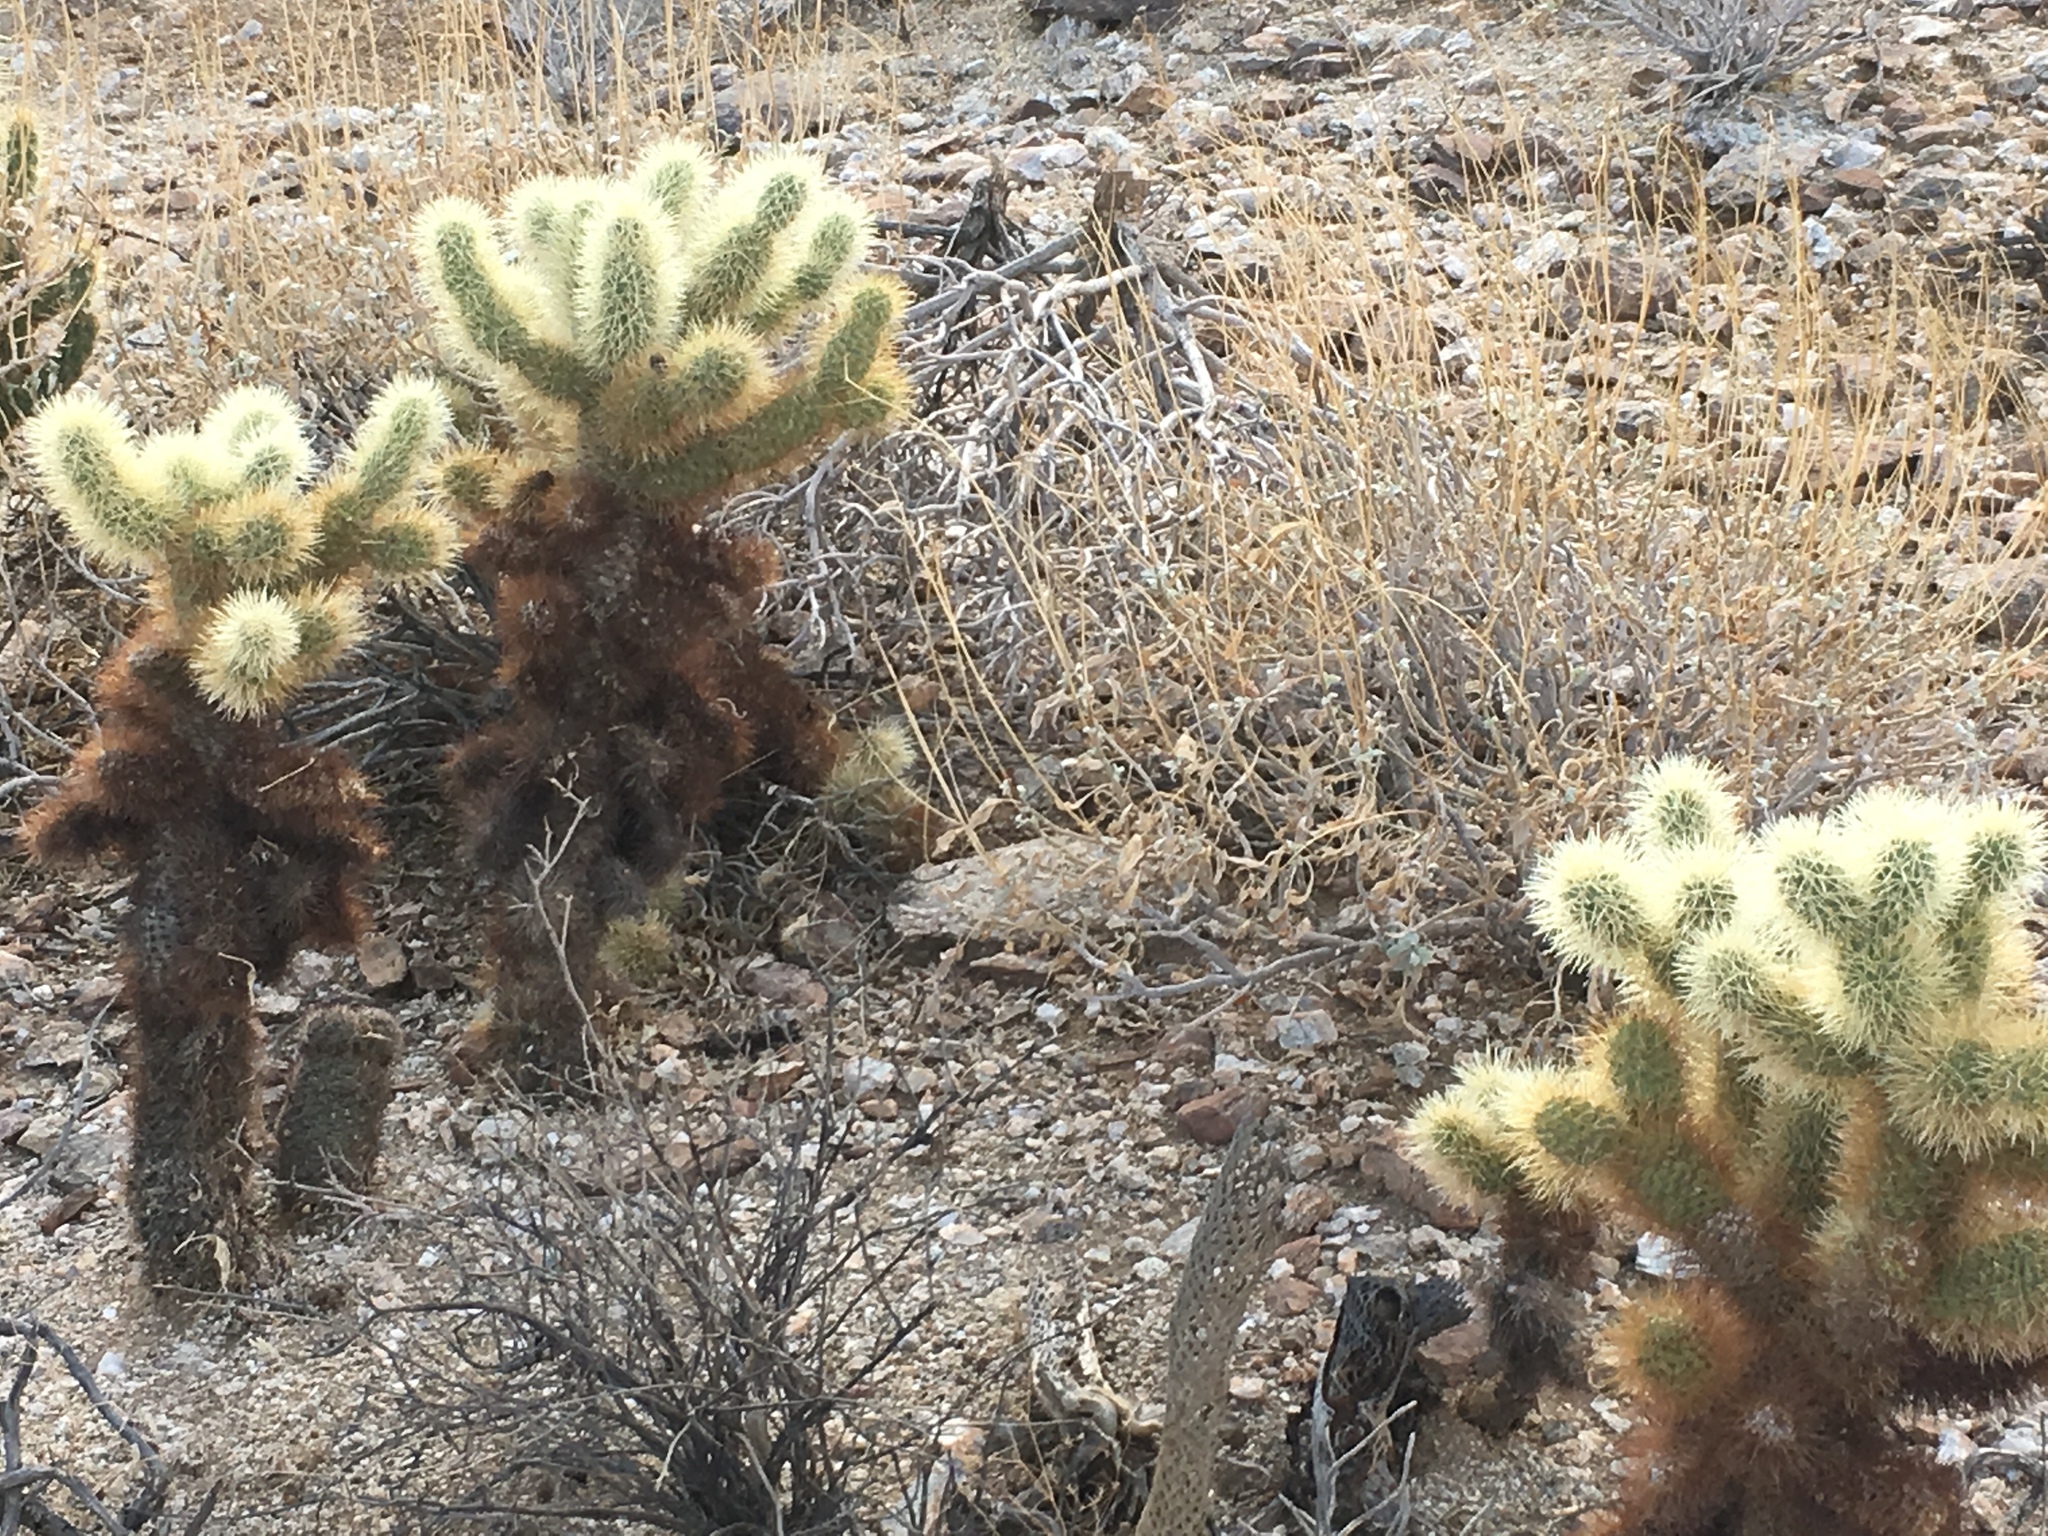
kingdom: Plantae
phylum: Tracheophyta
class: Magnoliopsida
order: Caryophyllales
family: Cactaceae
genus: Cylindropuntia
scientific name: Cylindropuntia fosbergii
